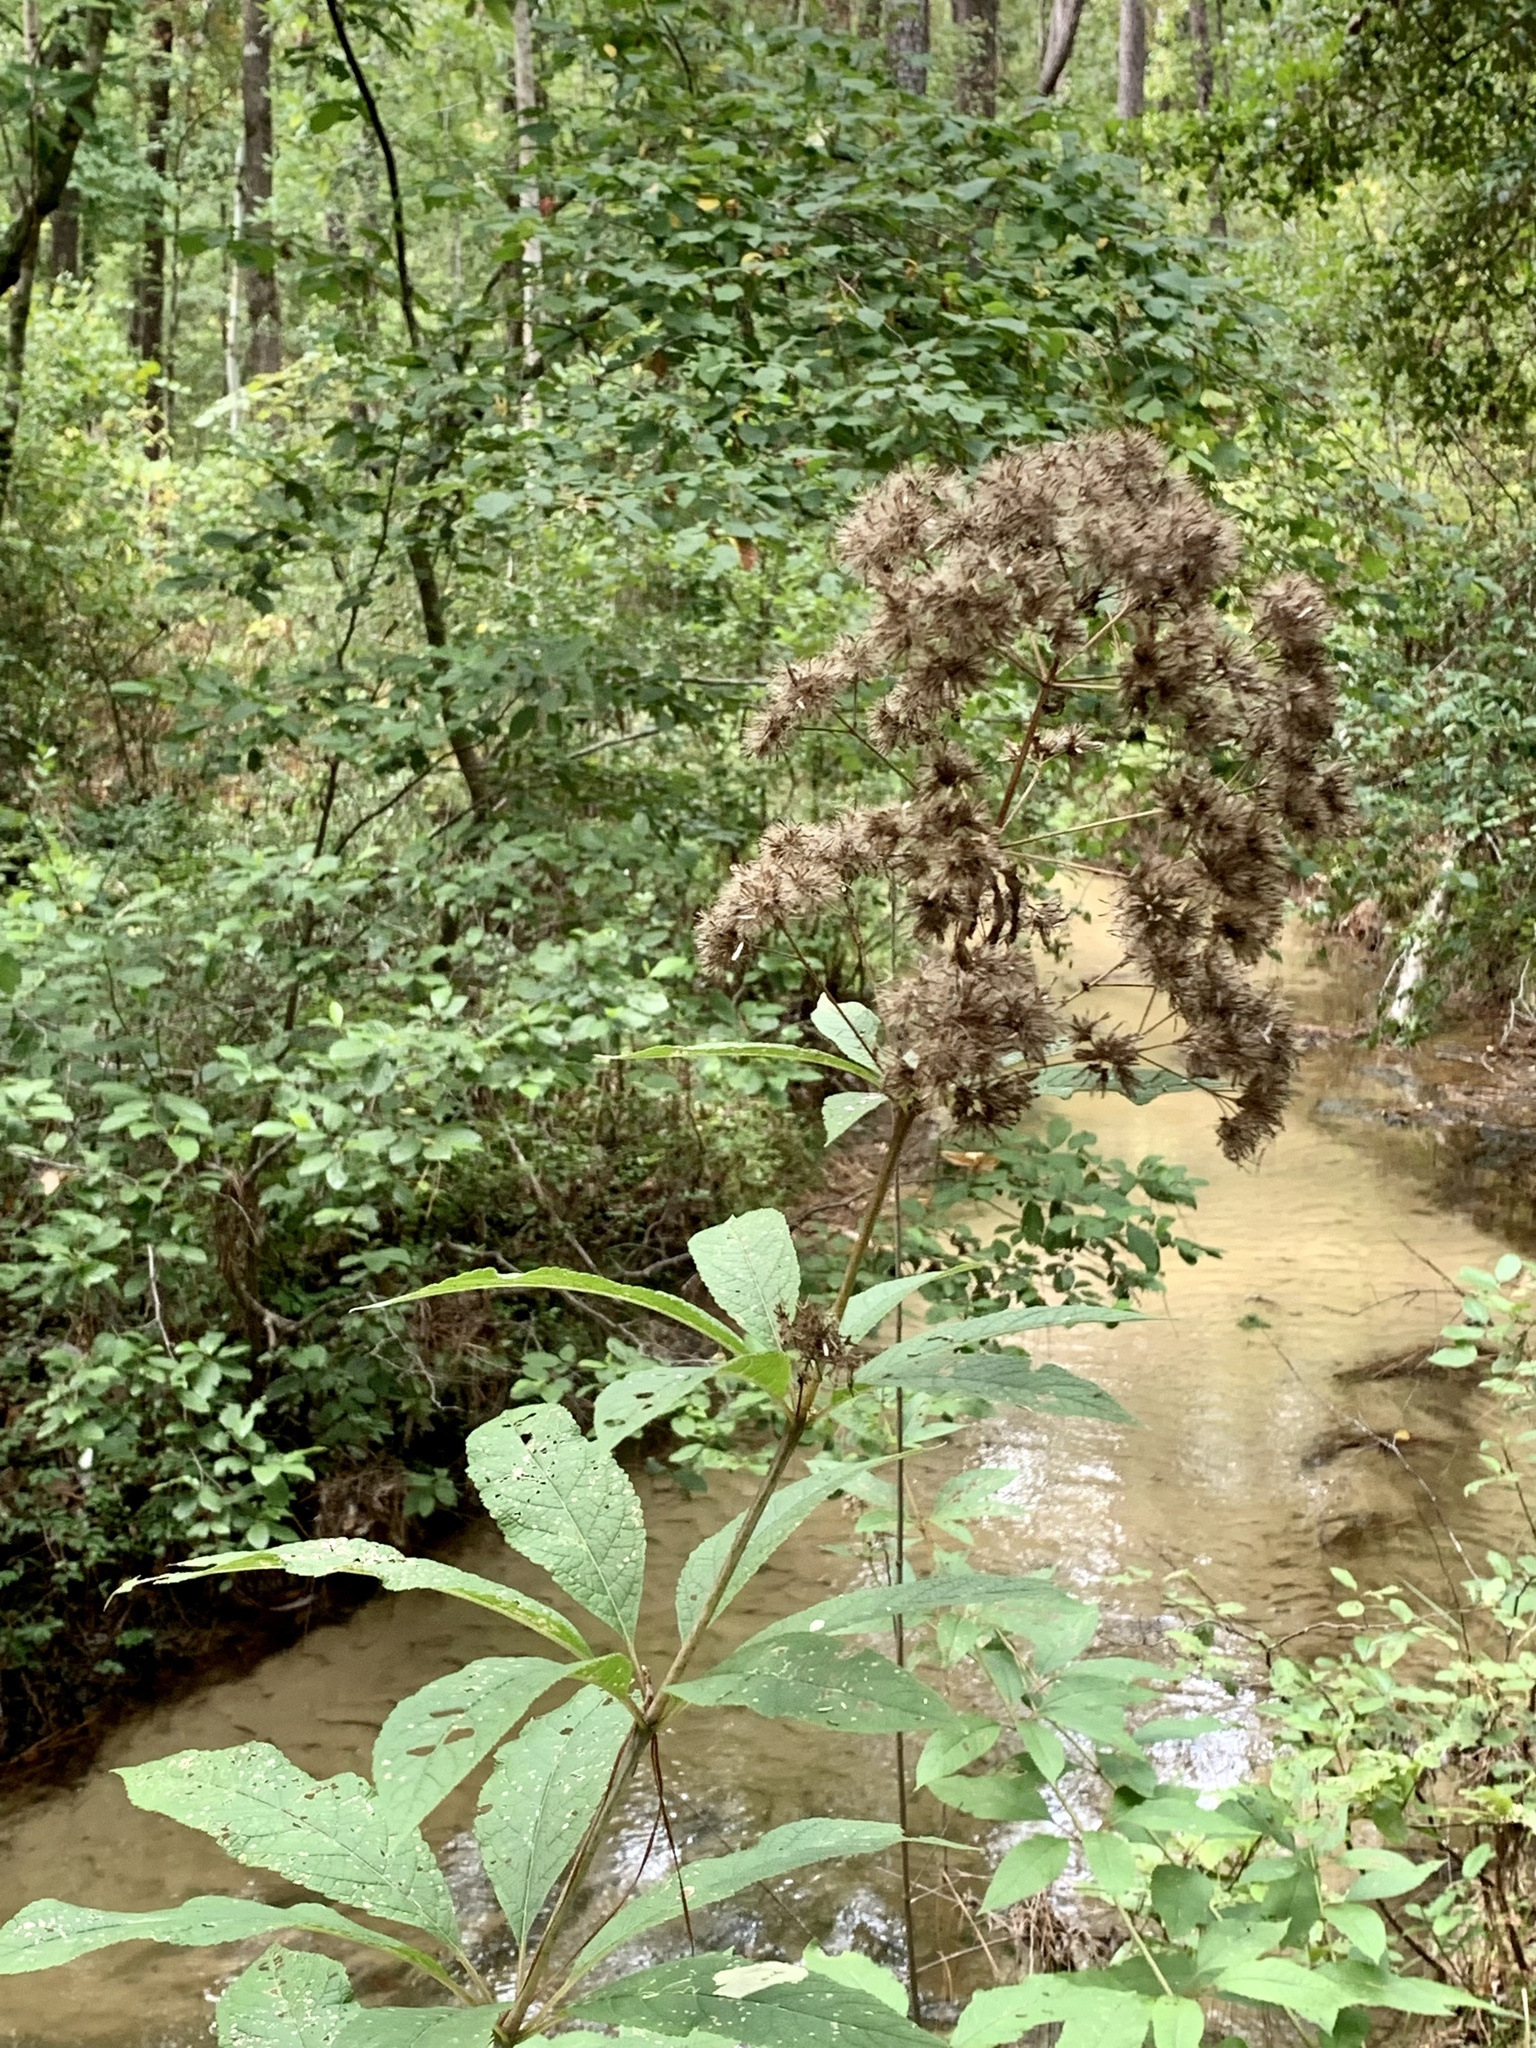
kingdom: Plantae
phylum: Tracheophyta
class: Magnoliopsida
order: Asterales
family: Asteraceae
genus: Eutrochium
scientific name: Eutrochium fistulosum
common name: Trumpetweed
